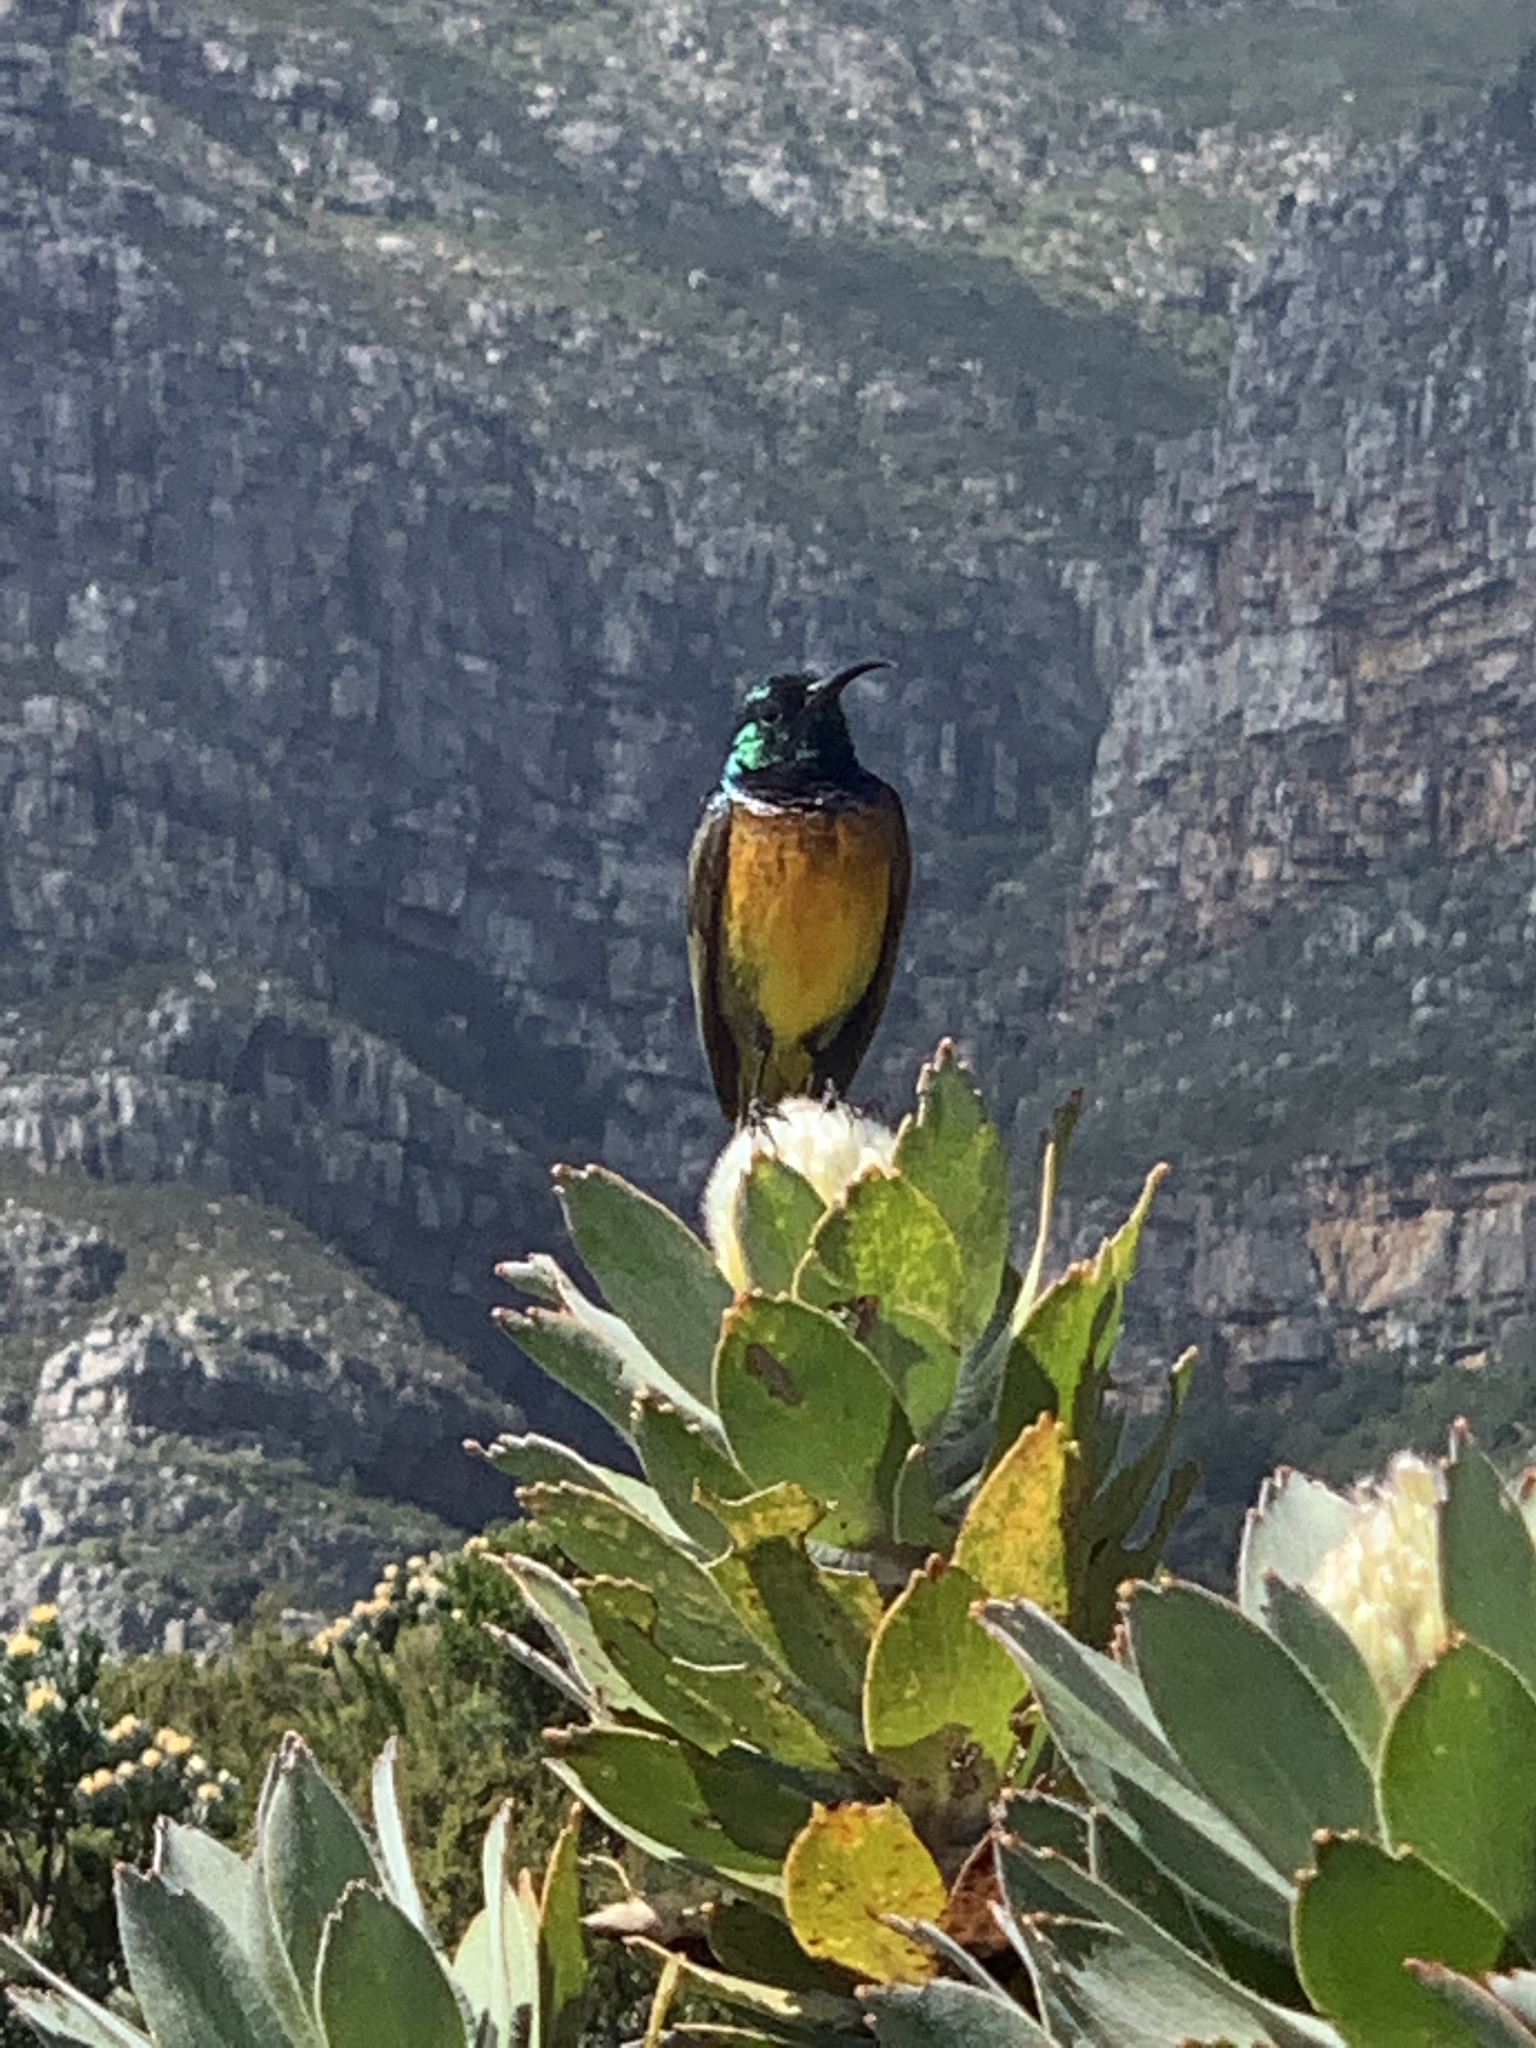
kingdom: Animalia
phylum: Chordata
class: Aves
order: Passeriformes
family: Nectariniidae
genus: Anthobaphes
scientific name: Anthobaphes violacea
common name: Orange-breasted sunbird
